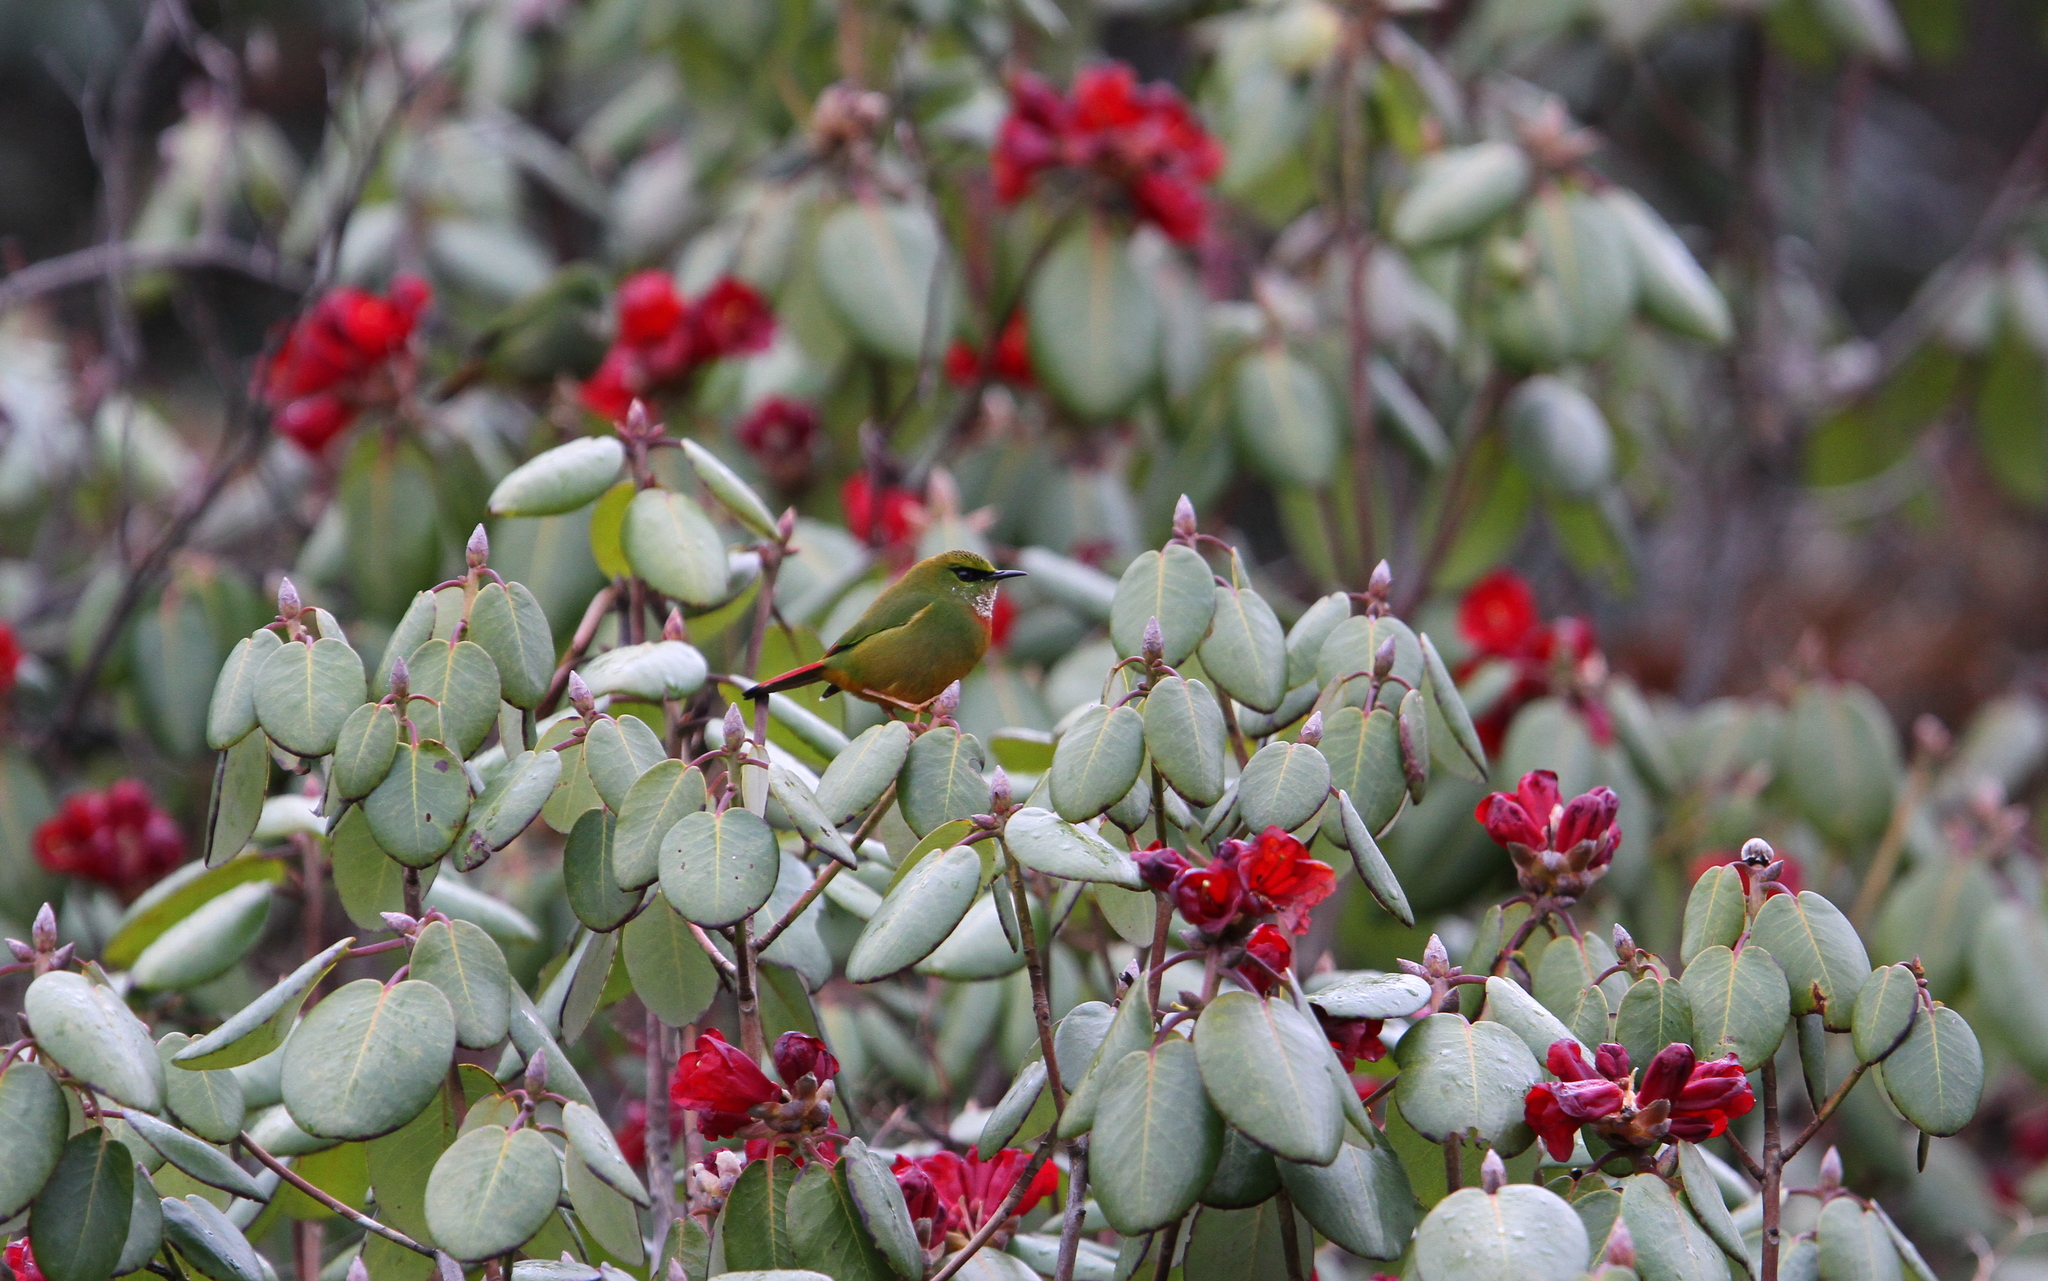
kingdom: Animalia
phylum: Chordata
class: Aves
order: Passeriformes
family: Sylviidae
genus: Myzornis
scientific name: Myzornis pyrrhoura
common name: Fire-tailed myzornis
